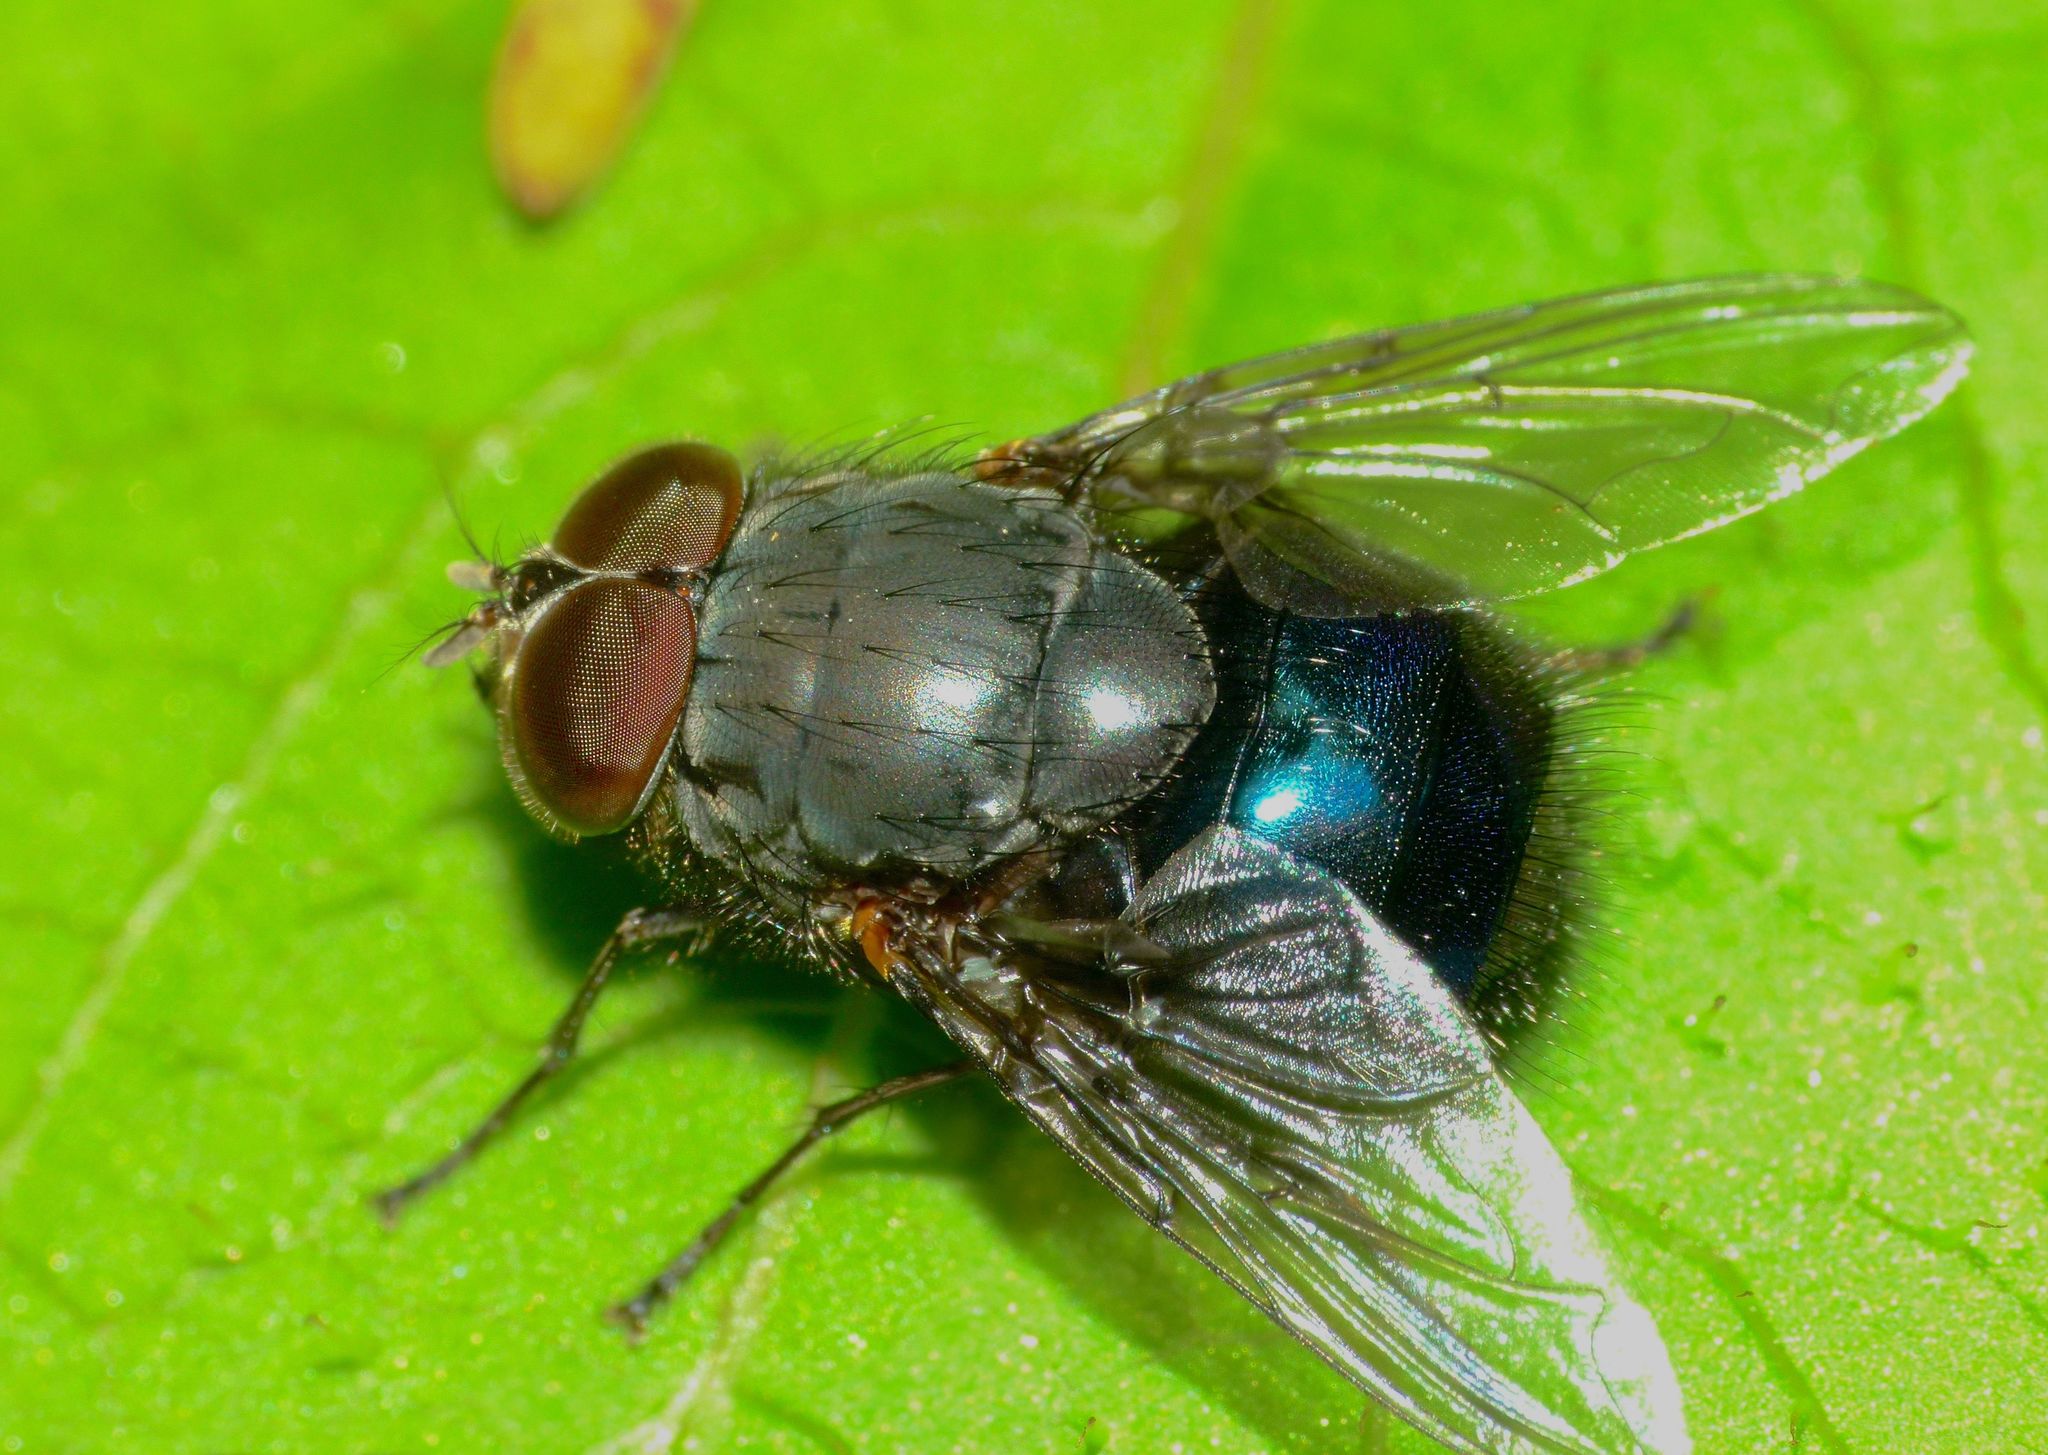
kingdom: Animalia
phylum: Arthropoda
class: Insecta
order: Diptera
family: Calliphoridae
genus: Calliphora
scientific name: Calliphora quadrimaculata
